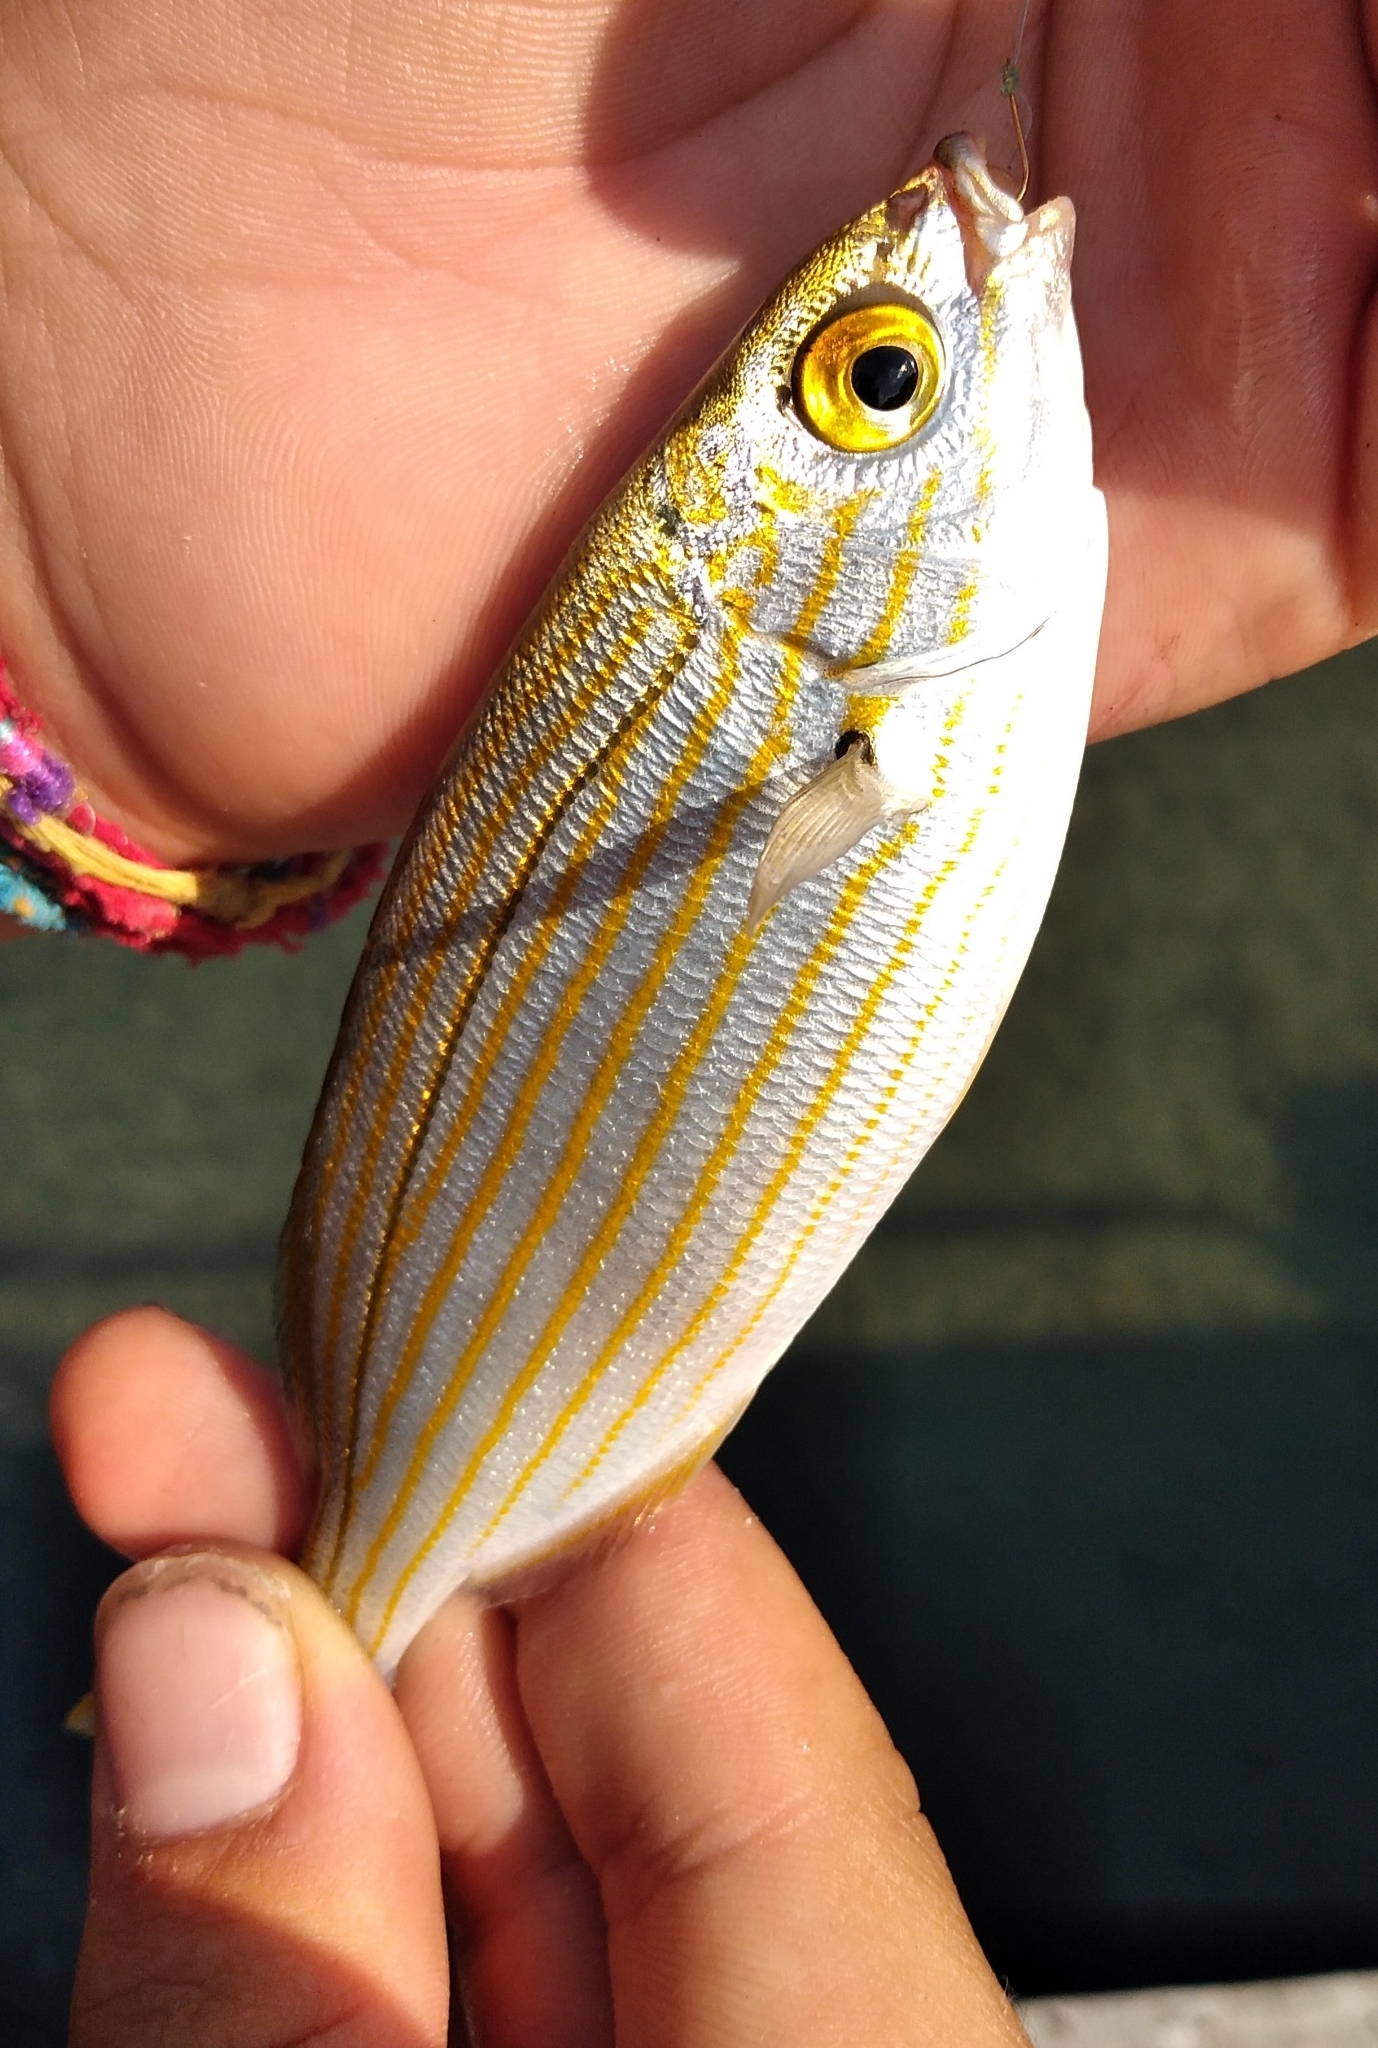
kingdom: Animalia
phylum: Chordata
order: Perciformes
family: Sparidae
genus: Sarpa
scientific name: Sarpa salpa
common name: Salema
